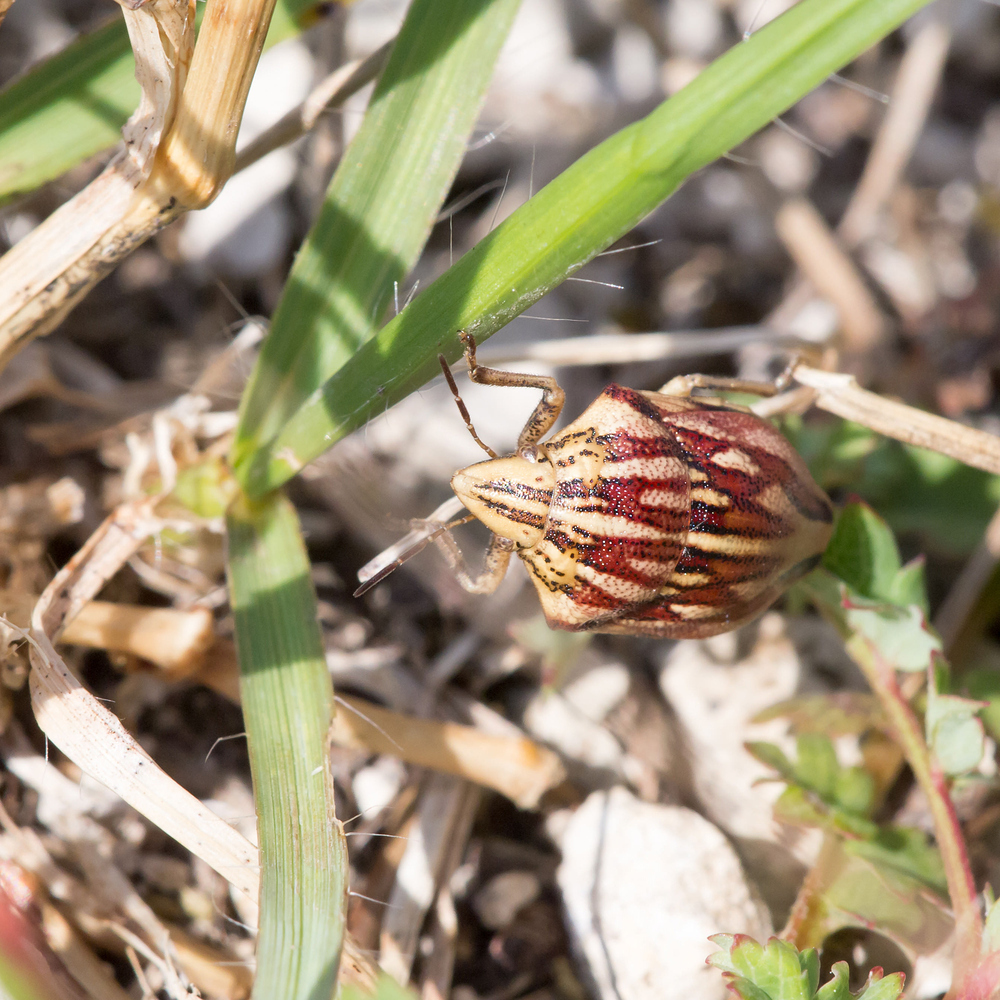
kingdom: Animalia
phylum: Arthropoda
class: Insecta
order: Hemiptera
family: Scutelleridae
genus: Odontotarsus
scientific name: Odontotarsus purpureolineatus
